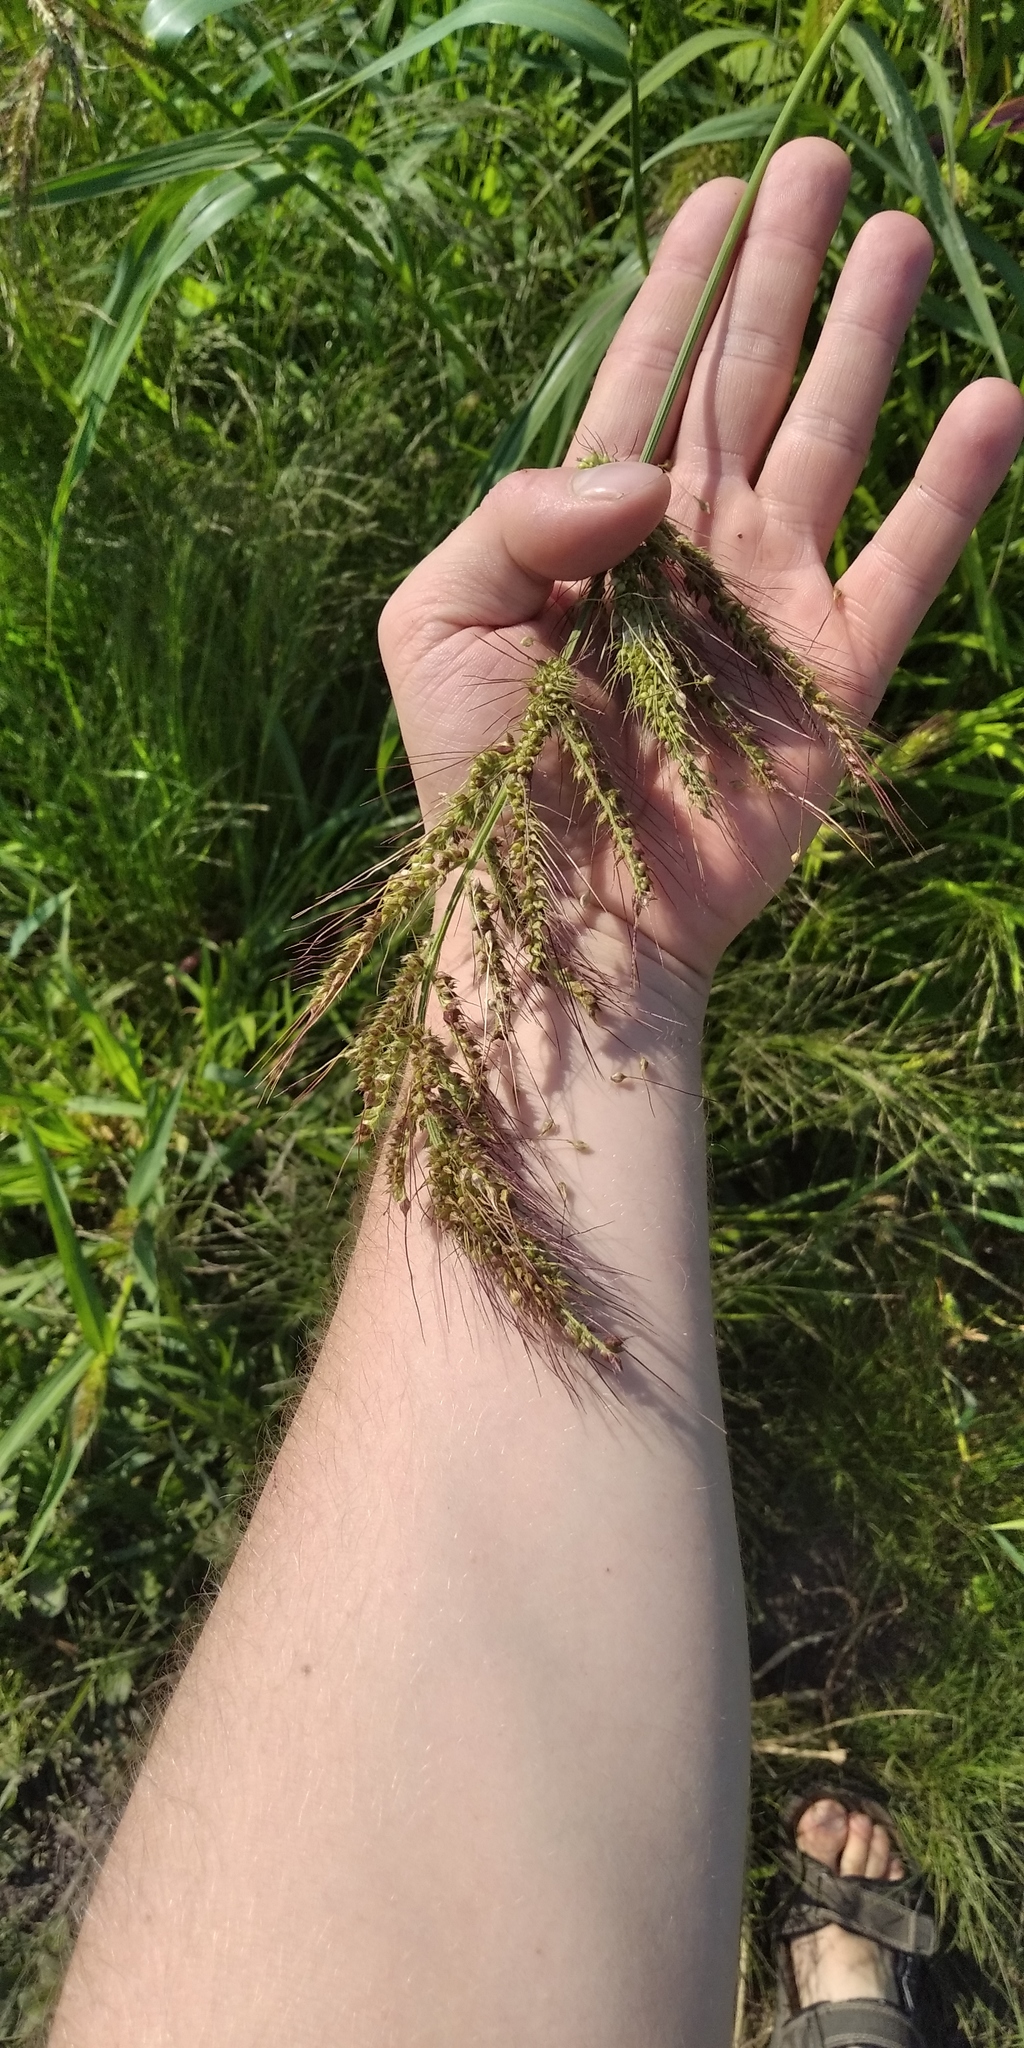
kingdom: Plantae
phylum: Tracheophyta
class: Liliopsida
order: Poales
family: Poaceae
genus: Echinochloa
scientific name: Echinochloa crus-galli
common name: Cockspur
